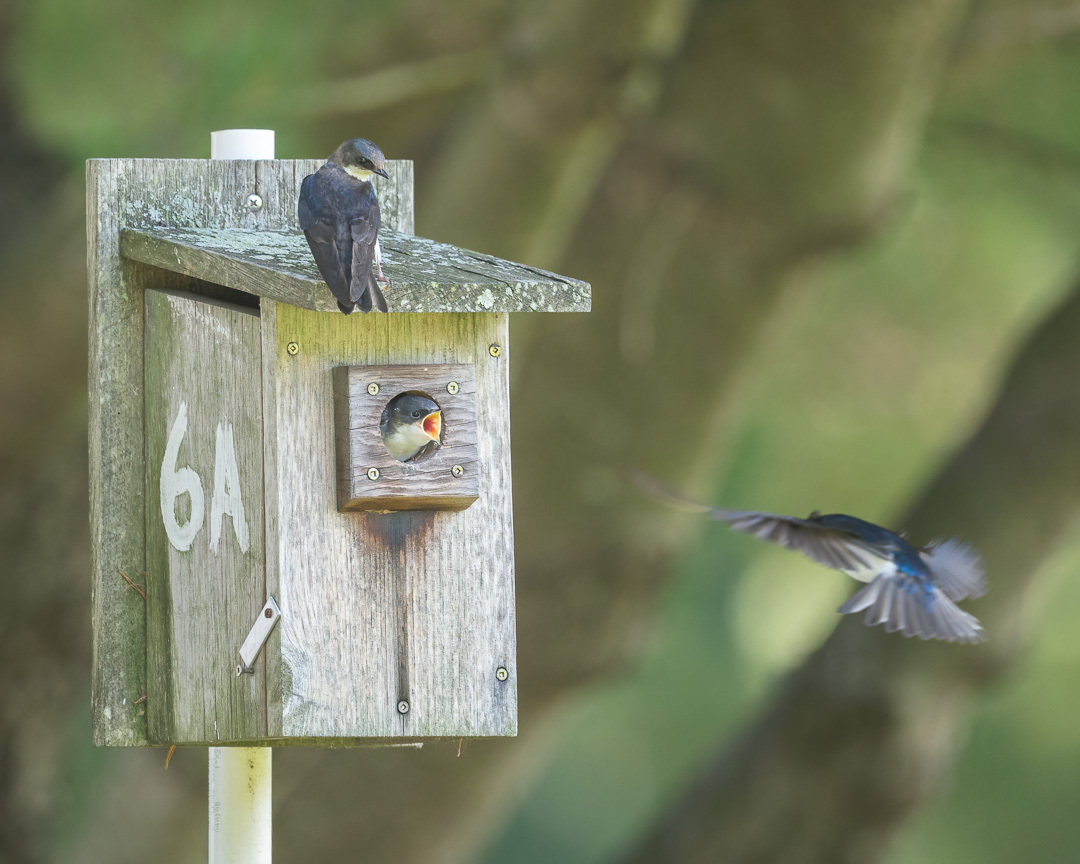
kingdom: Animalia
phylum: Chordata
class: Aves
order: Passeriformes
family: Hirundinidae
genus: Tachycineta
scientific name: Tachycineta bicolor
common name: Tree swallow
